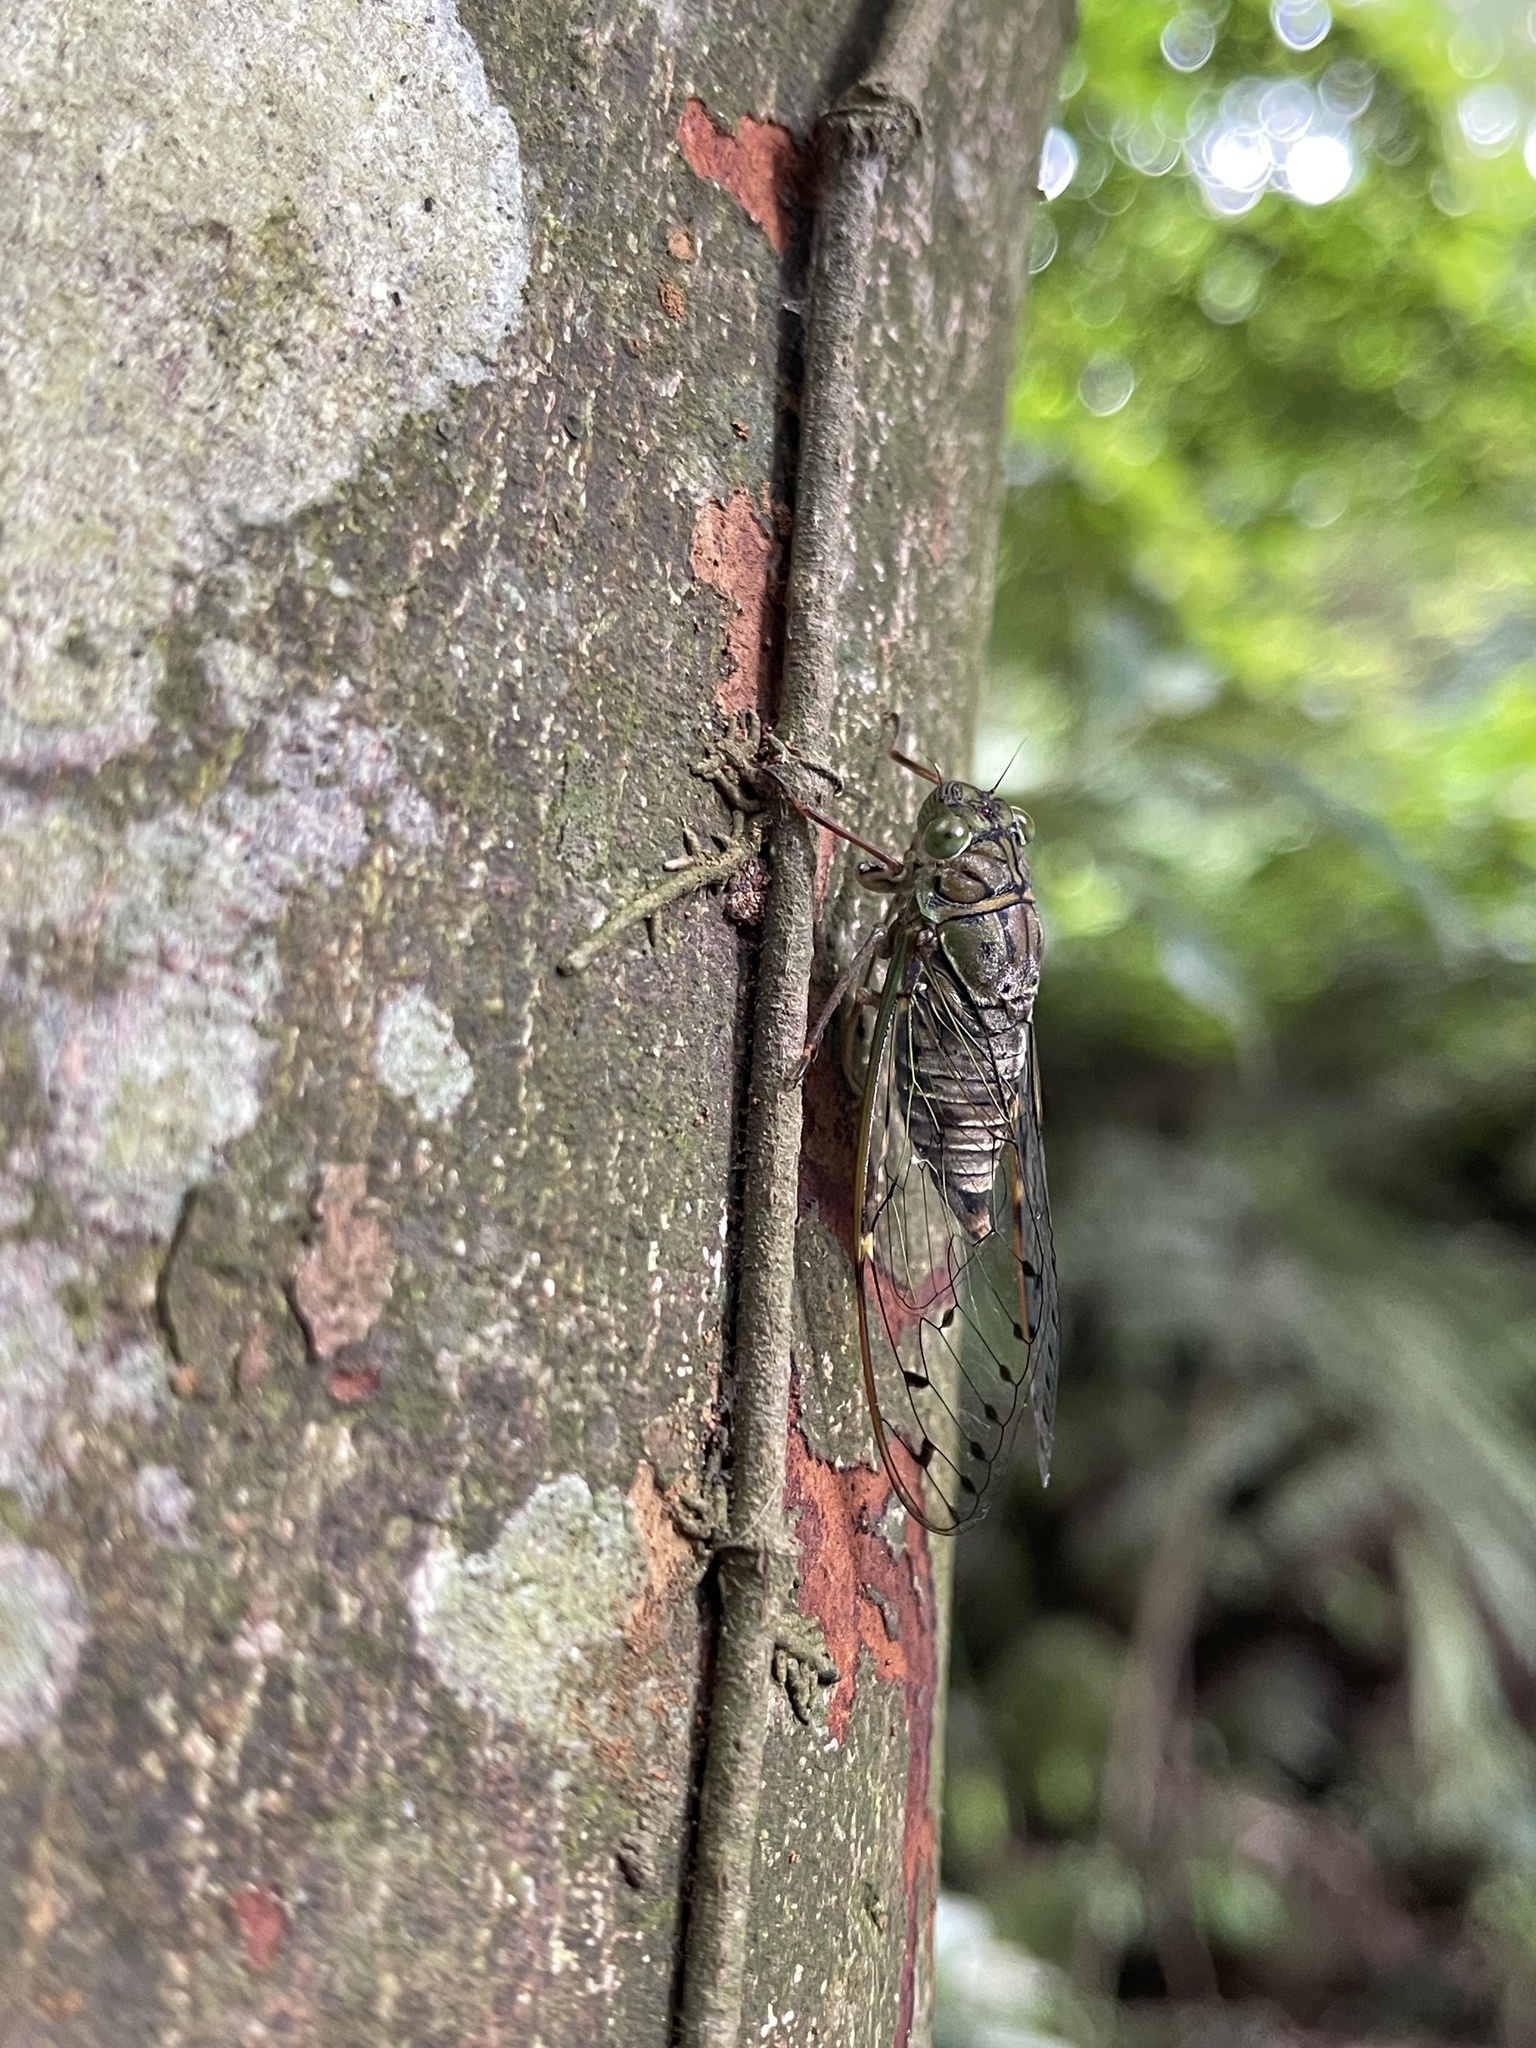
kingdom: Animalia
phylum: Arthropoda
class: Insecta
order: Hemiptera
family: Cicadidae
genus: Formosemia
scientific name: Formosemia apicalis
